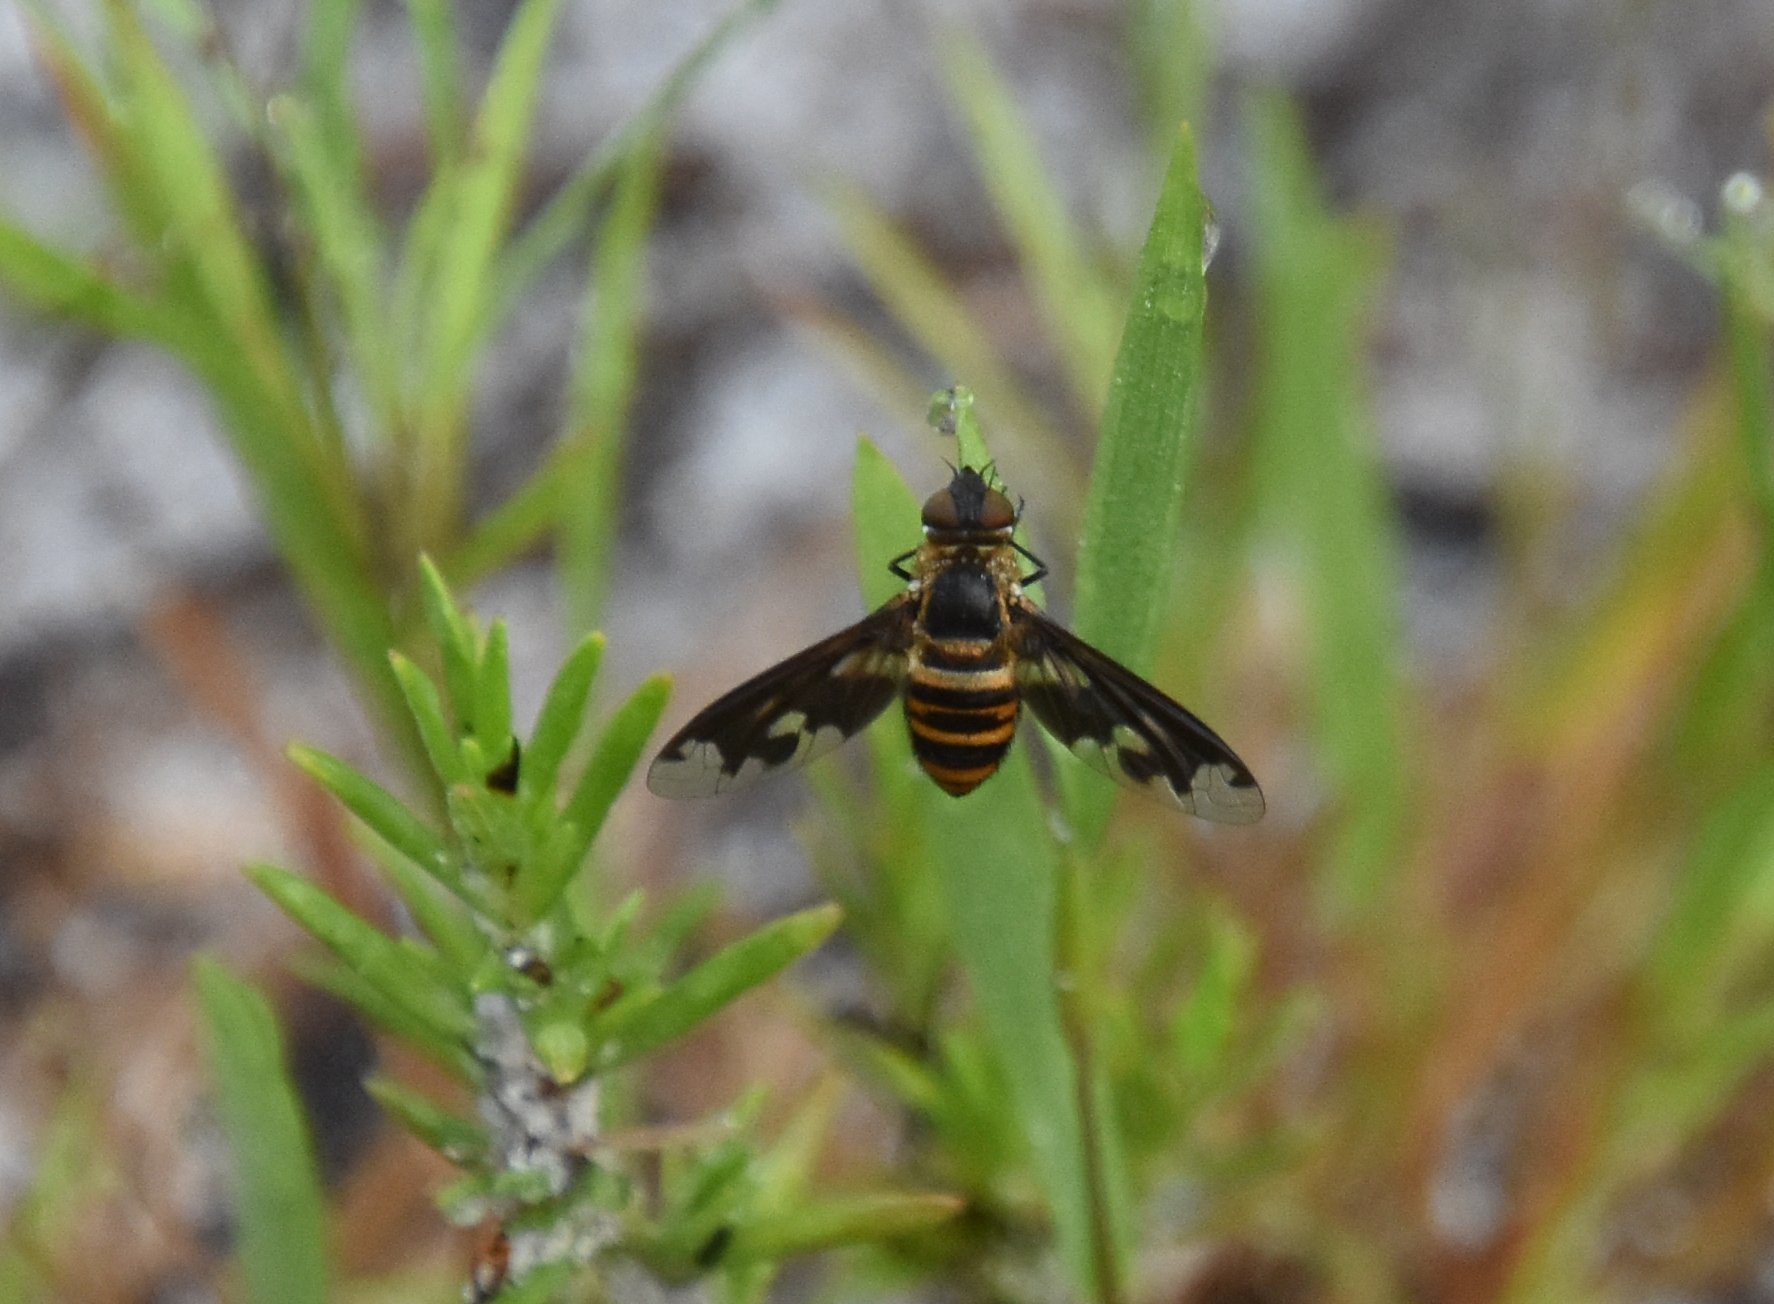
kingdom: Animalia
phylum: Arthropoda
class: Insecta
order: Diptera
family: Bombyliidae
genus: Exoprosopa
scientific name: Exoprosopa fascipennis
